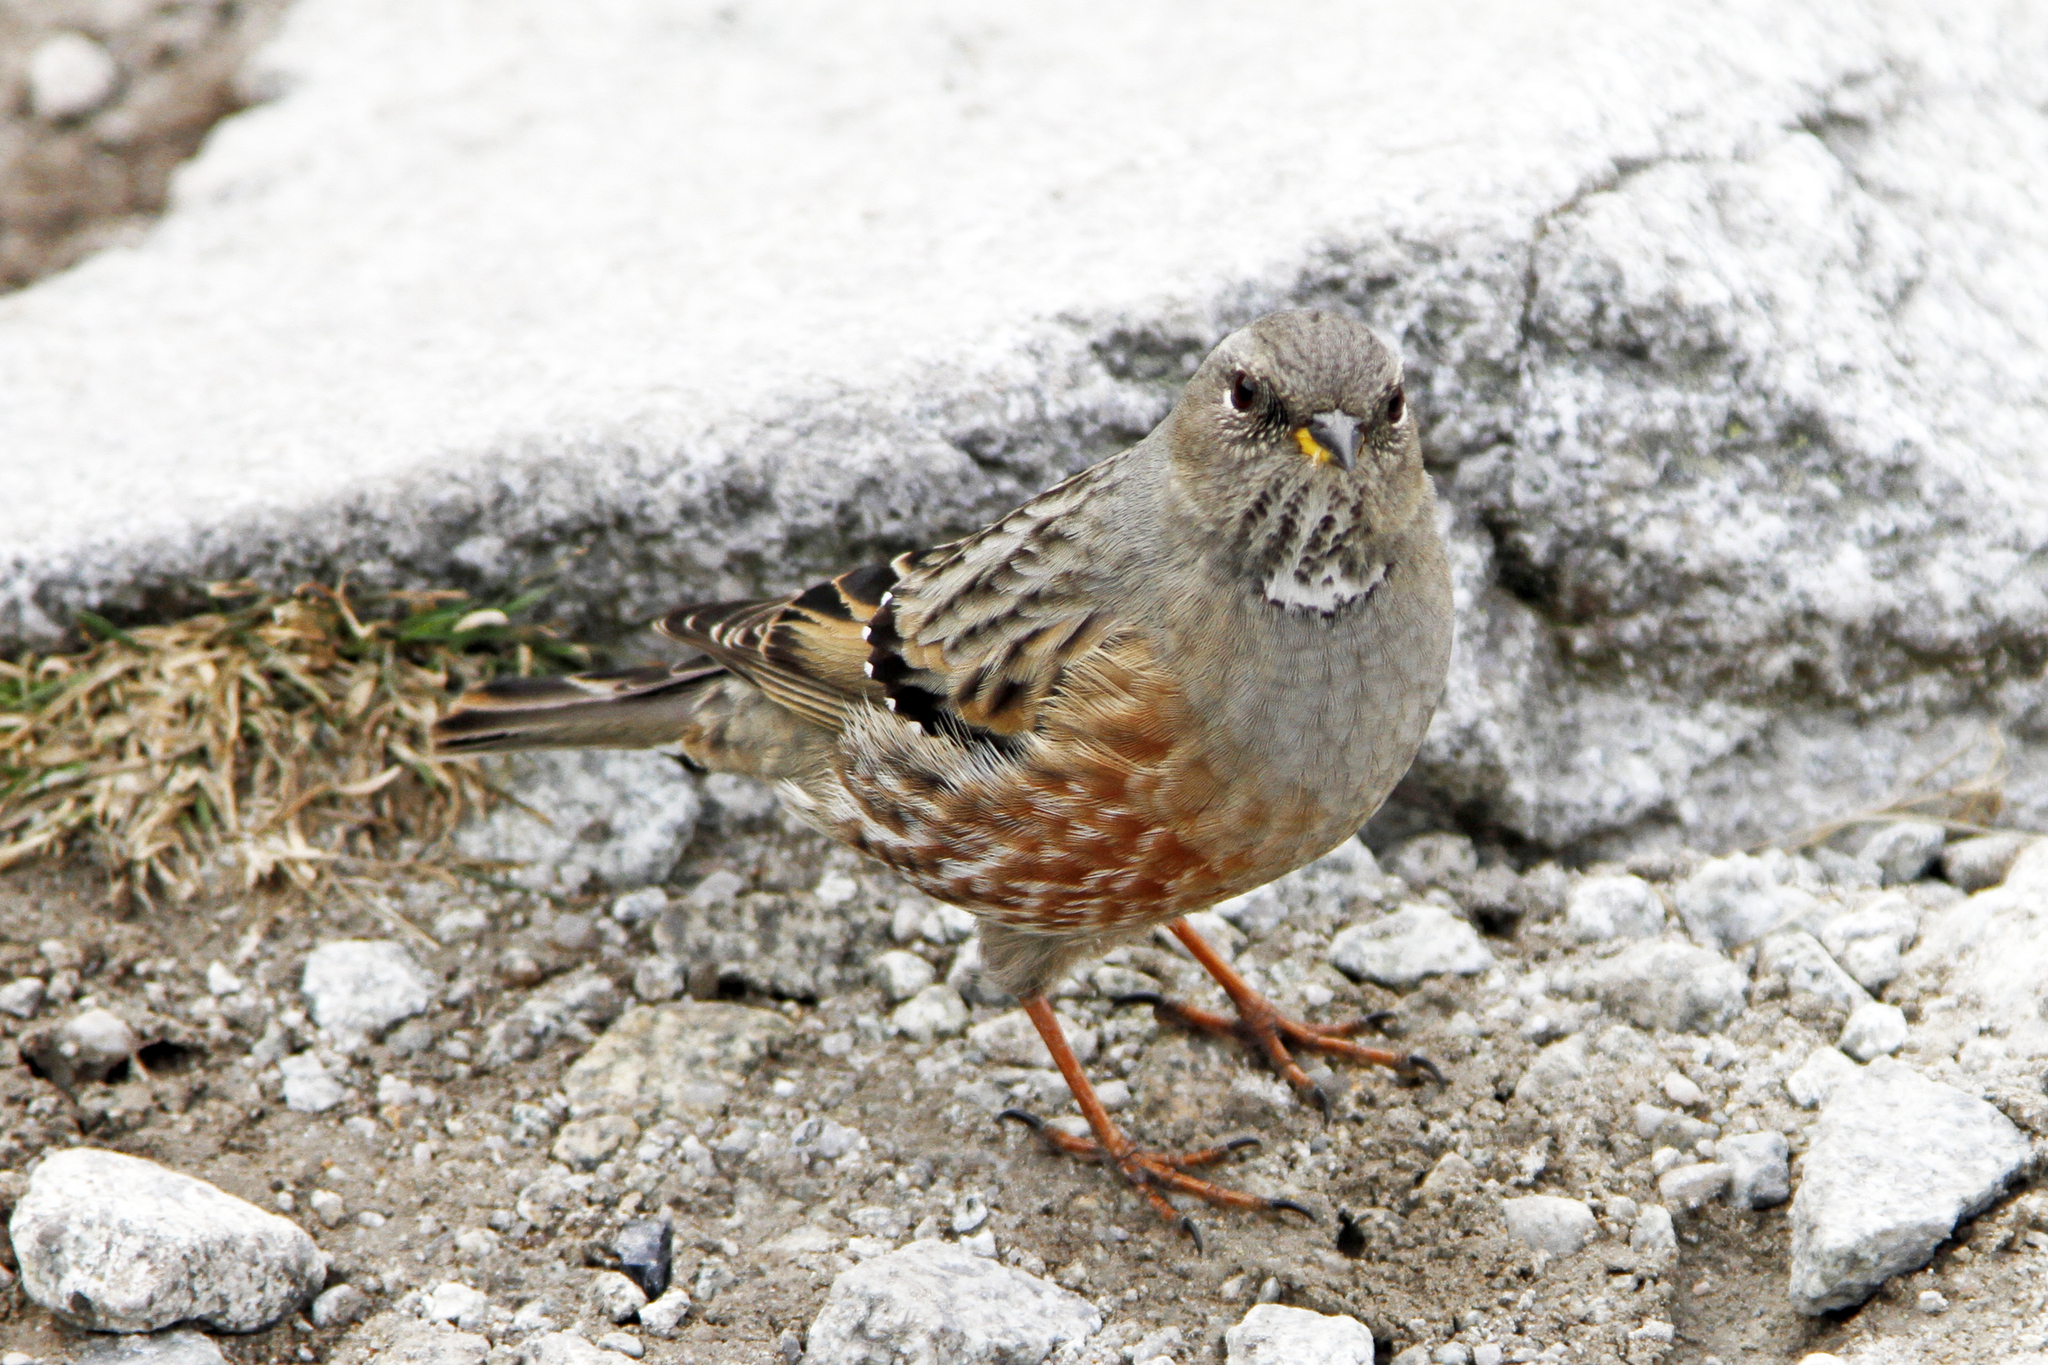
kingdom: Animalia
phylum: Chordata
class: Aves
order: Passeriformes
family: Prunellidae
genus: Prunella
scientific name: Prunella collaris
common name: Alpine accentor
